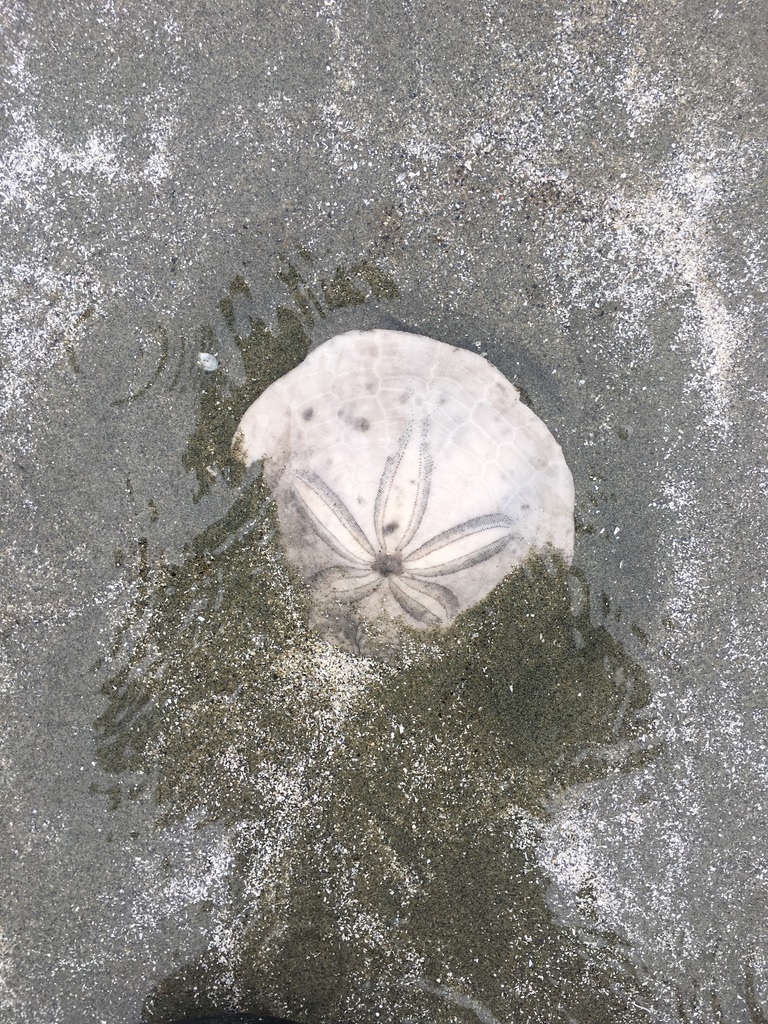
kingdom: Animalia
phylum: Echinodermata
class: Echinoidea
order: Echinolampadacea
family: Dendrasteridae
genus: Dendraster
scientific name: Dendraster excentricus
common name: Eccentric sand dollar sea urchin
